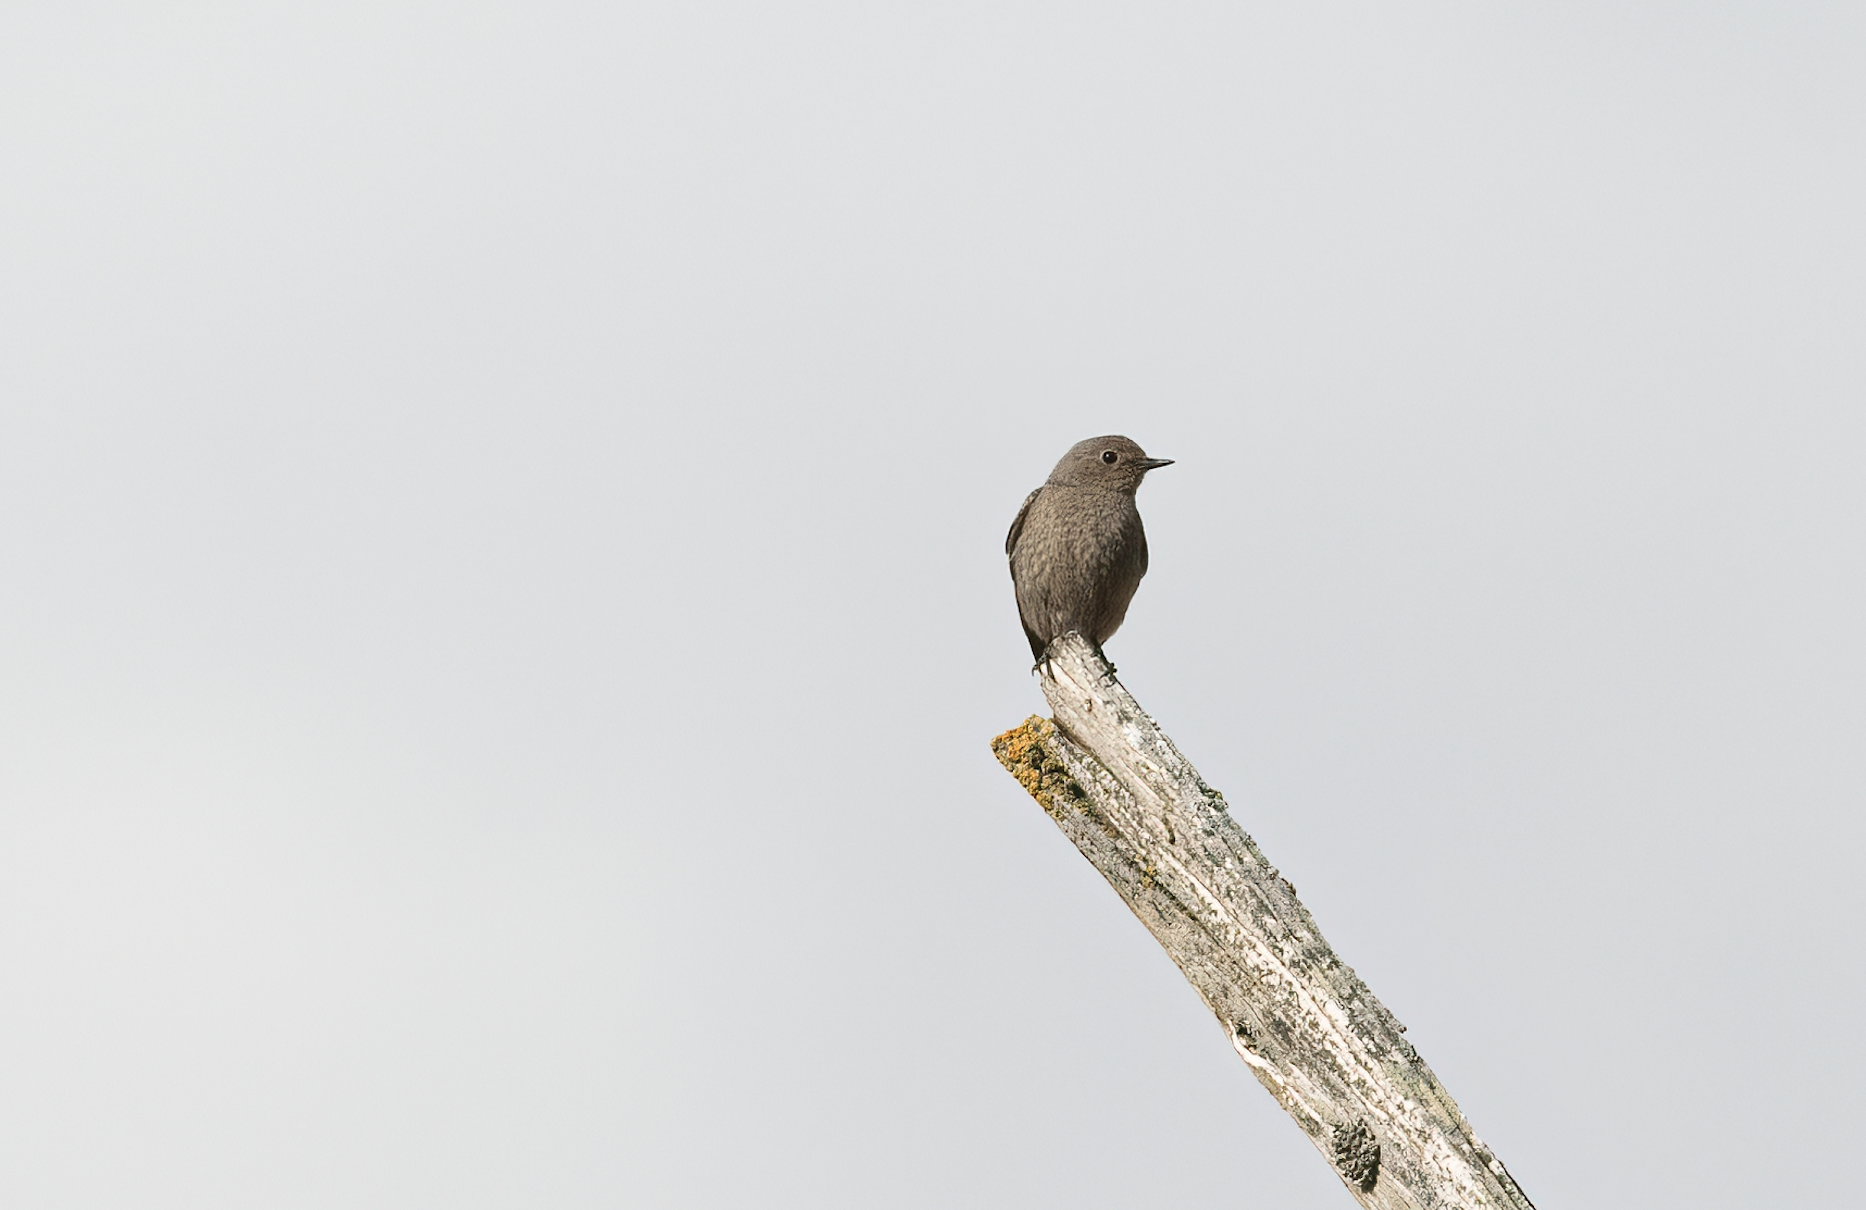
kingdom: Animalia
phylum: Chordata
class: Aves
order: Passeriformes
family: Muscicapidae
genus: Phoenicurus
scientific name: Phoenicurus ochruros
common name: Black redstart
